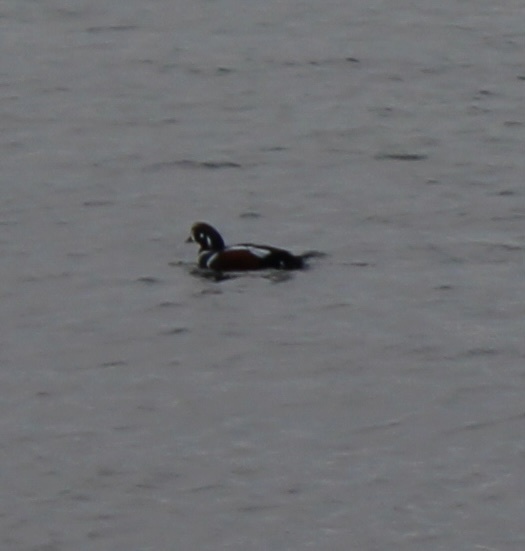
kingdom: Animalia
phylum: Chordata
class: Aves
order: Anseriformes
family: Anatidae
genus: Histrionicus
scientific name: Histrionicus histrionicus
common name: Harlequin duck
